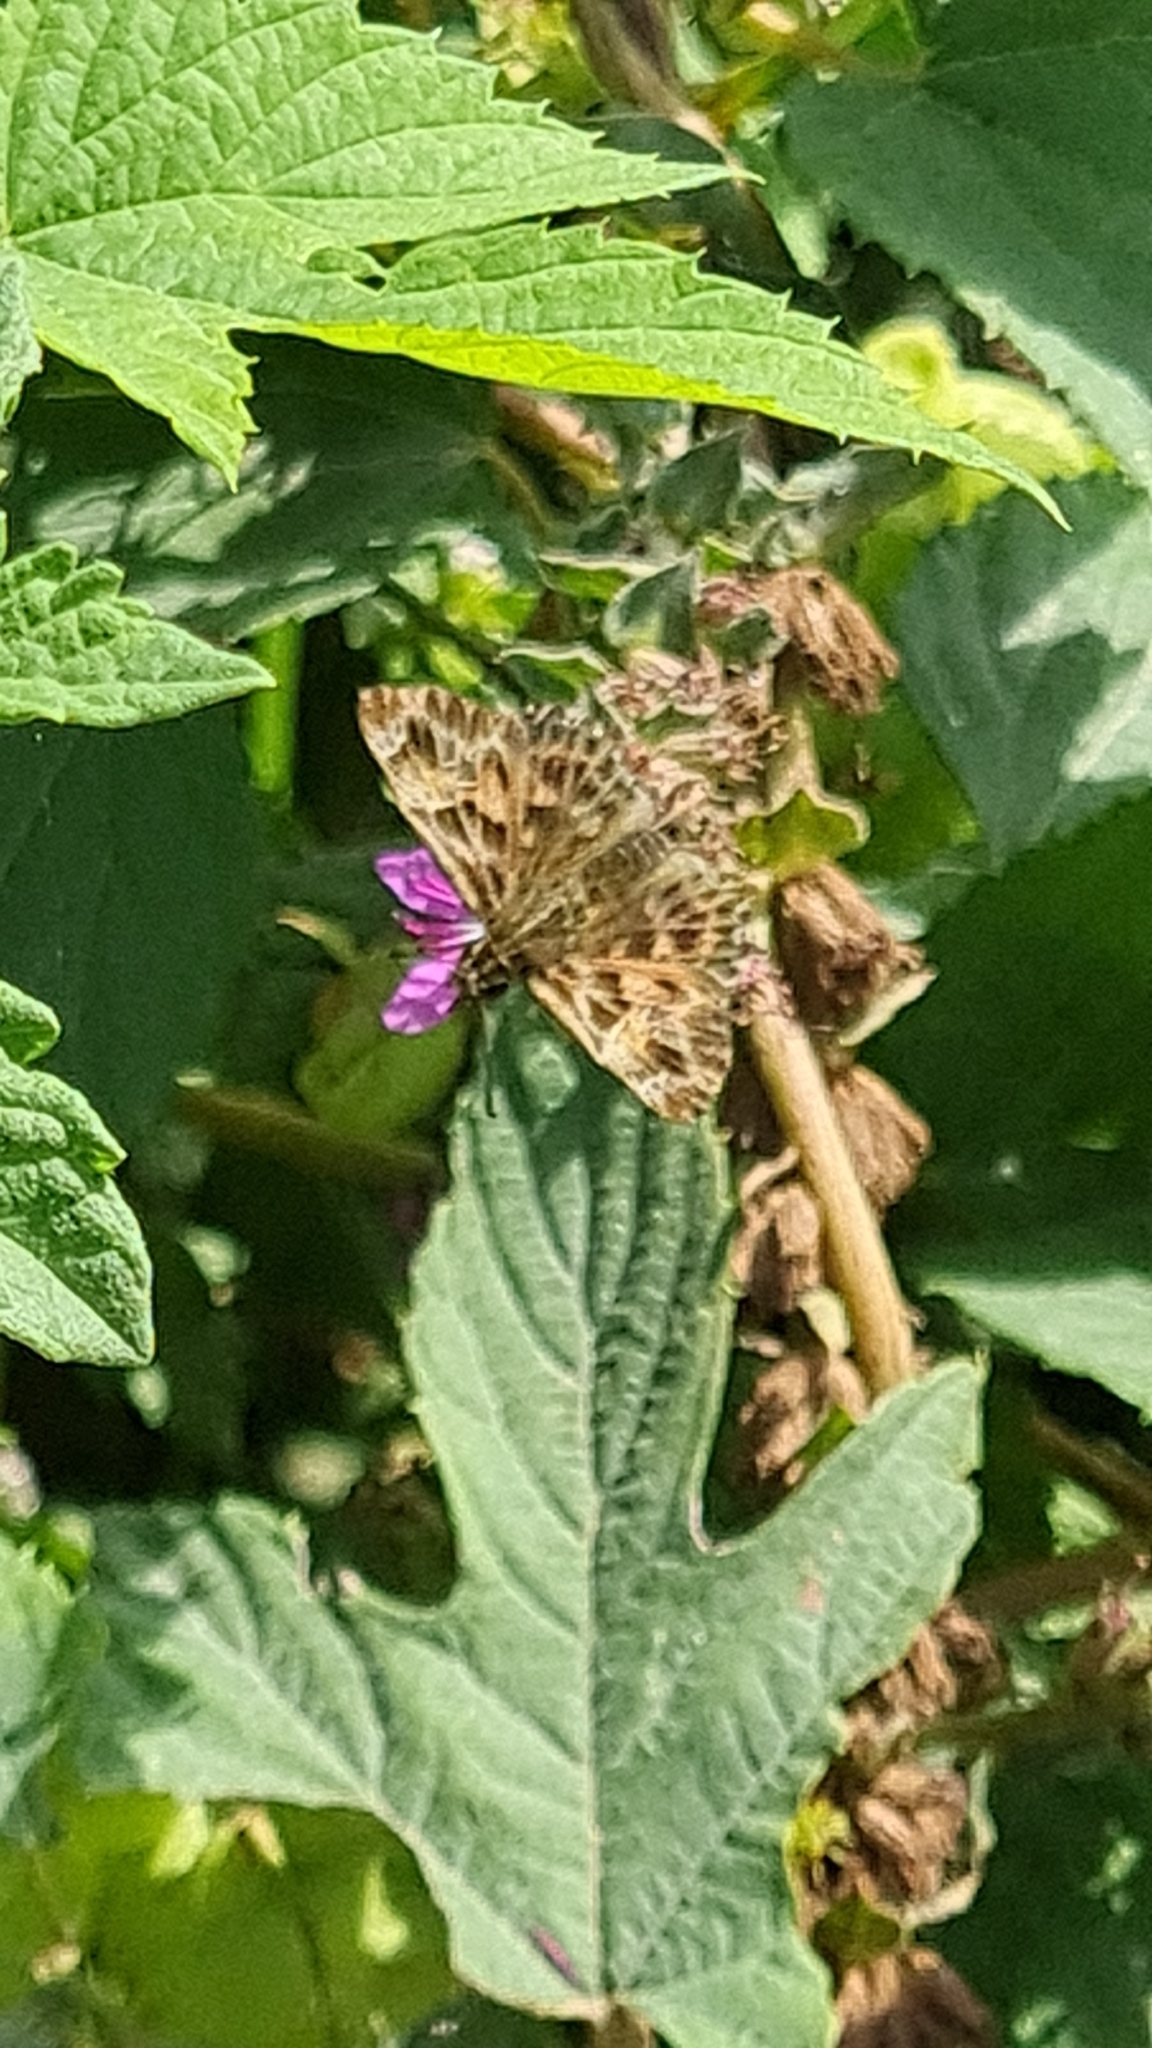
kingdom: Animalia
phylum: Arthropoda
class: Insecta
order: Lepidoptera
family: Hesperiidae
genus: Carcharodus
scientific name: Carcharodus alceae
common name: Mallow skipper
